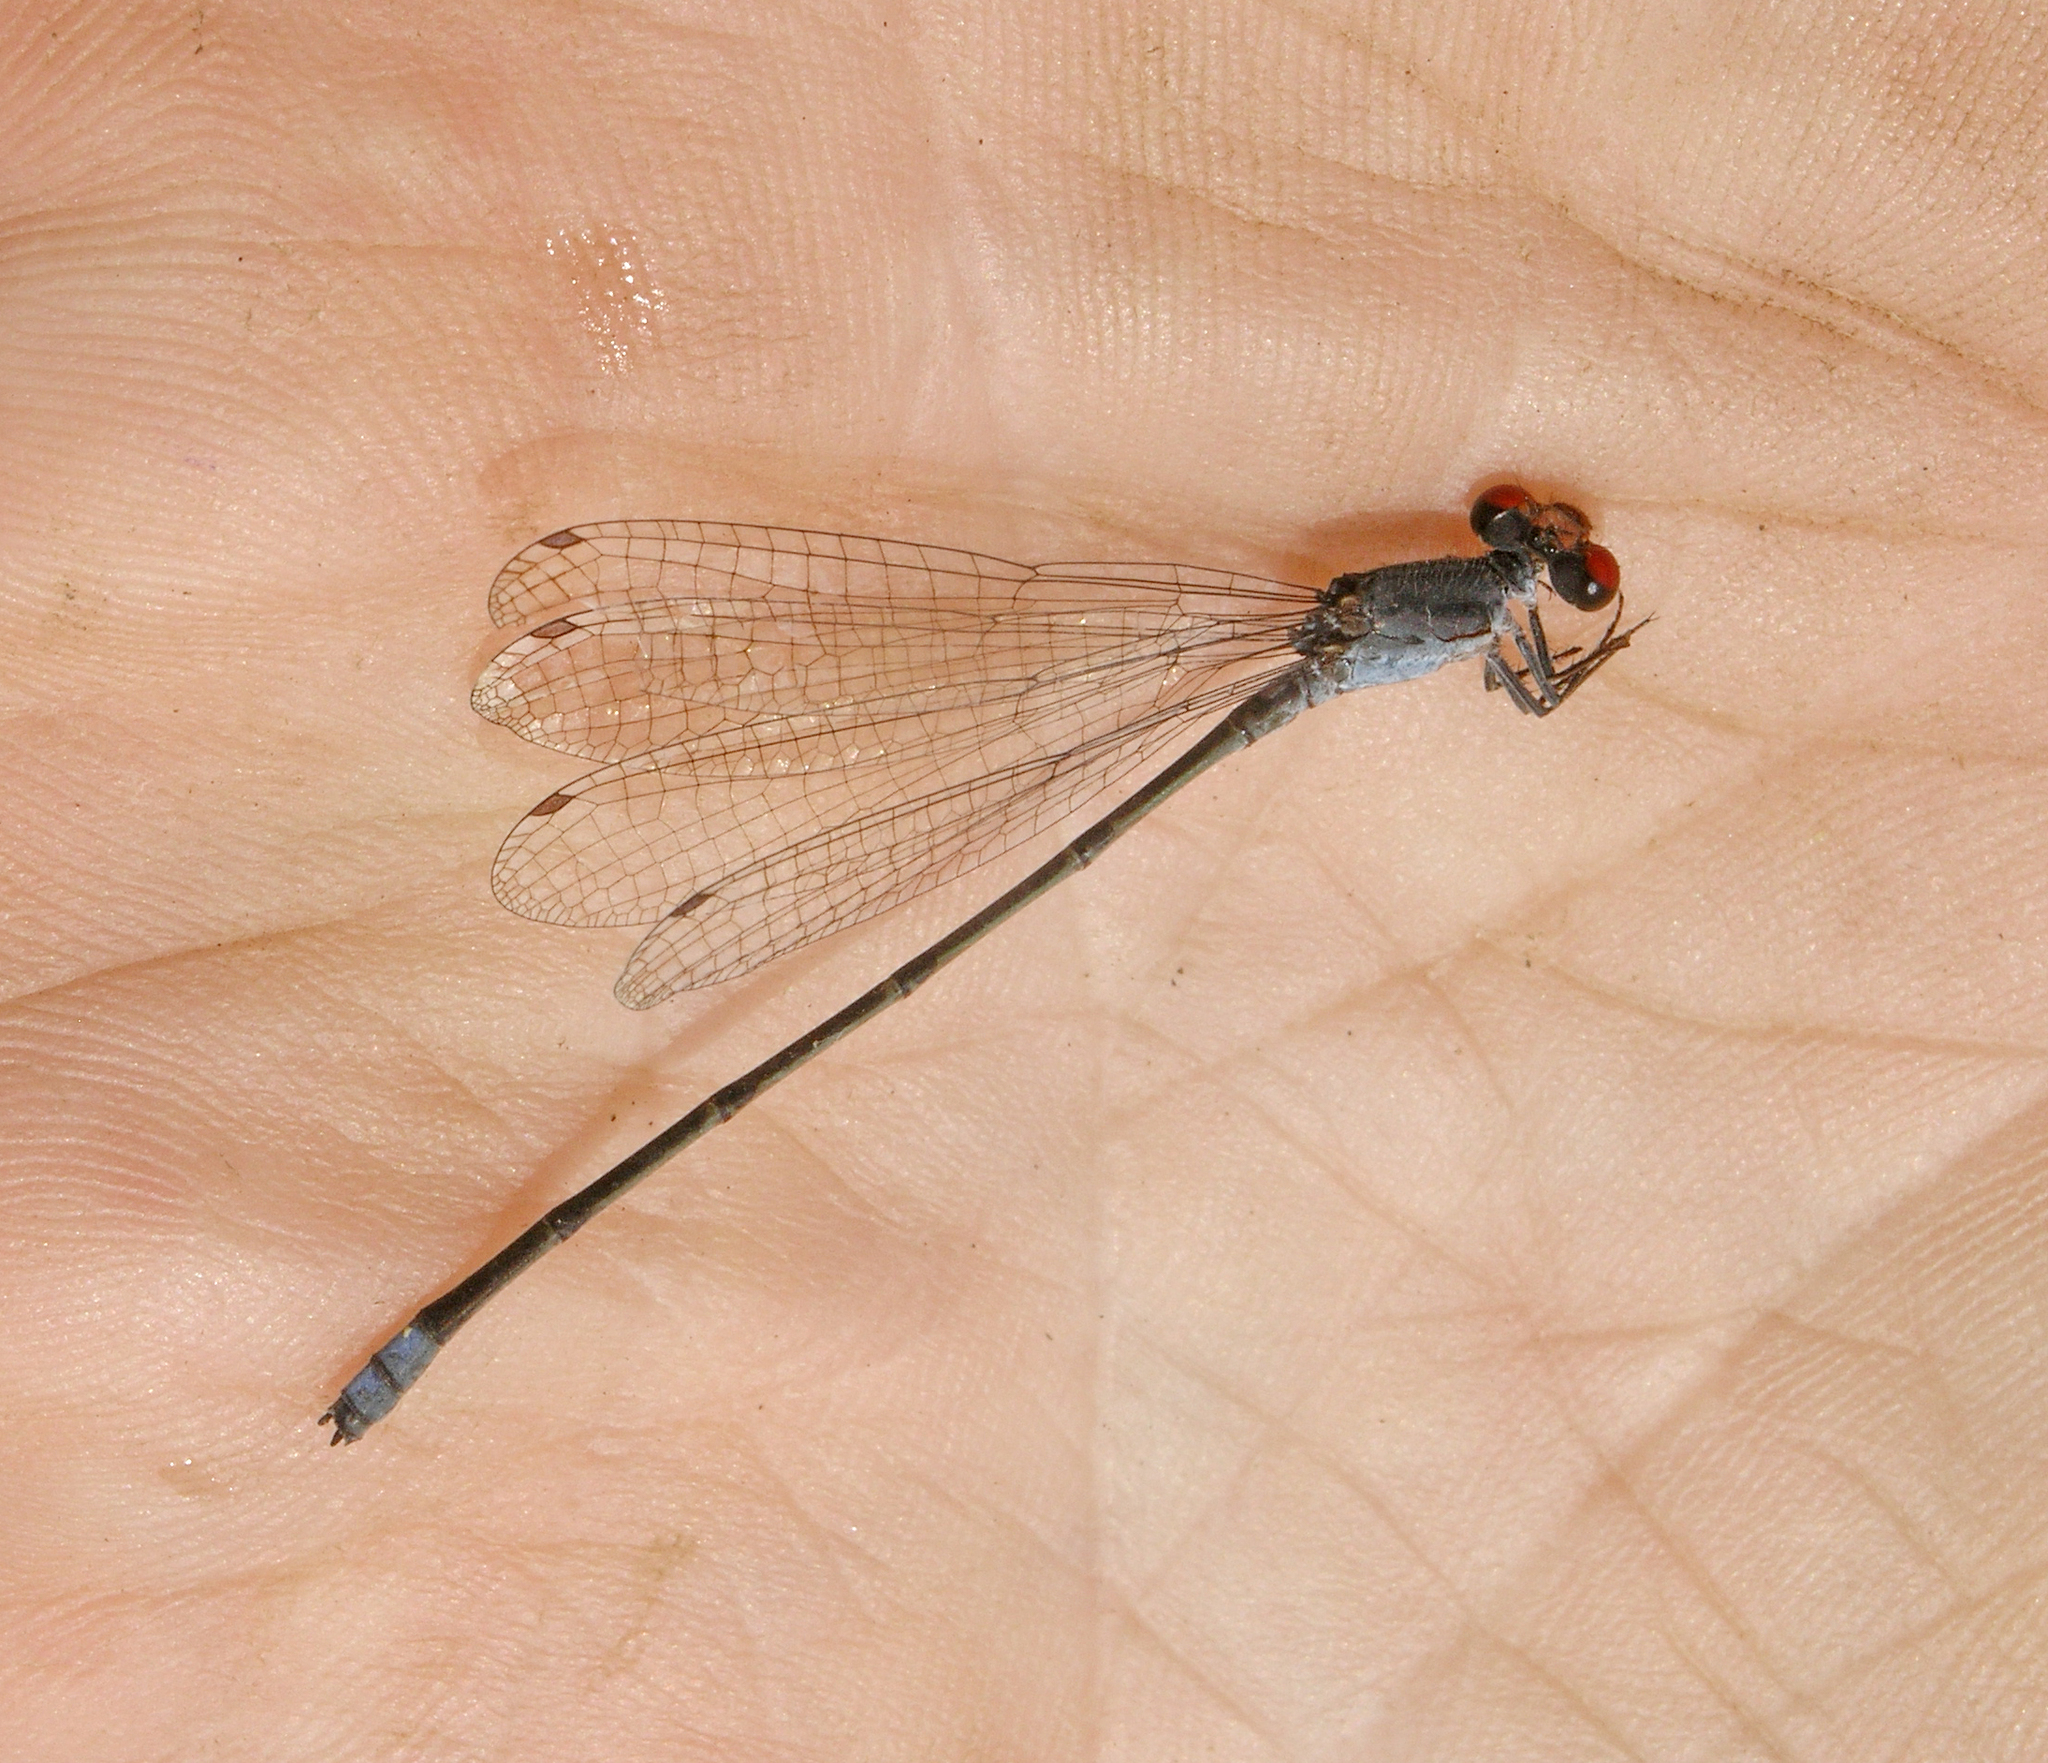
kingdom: Animalia
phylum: Arthropoda
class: Insecta
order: Odonata
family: Coenagrionidae
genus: Pseudagrion
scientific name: Pseudagrion sublacteum
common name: Cherry-eye sprite
